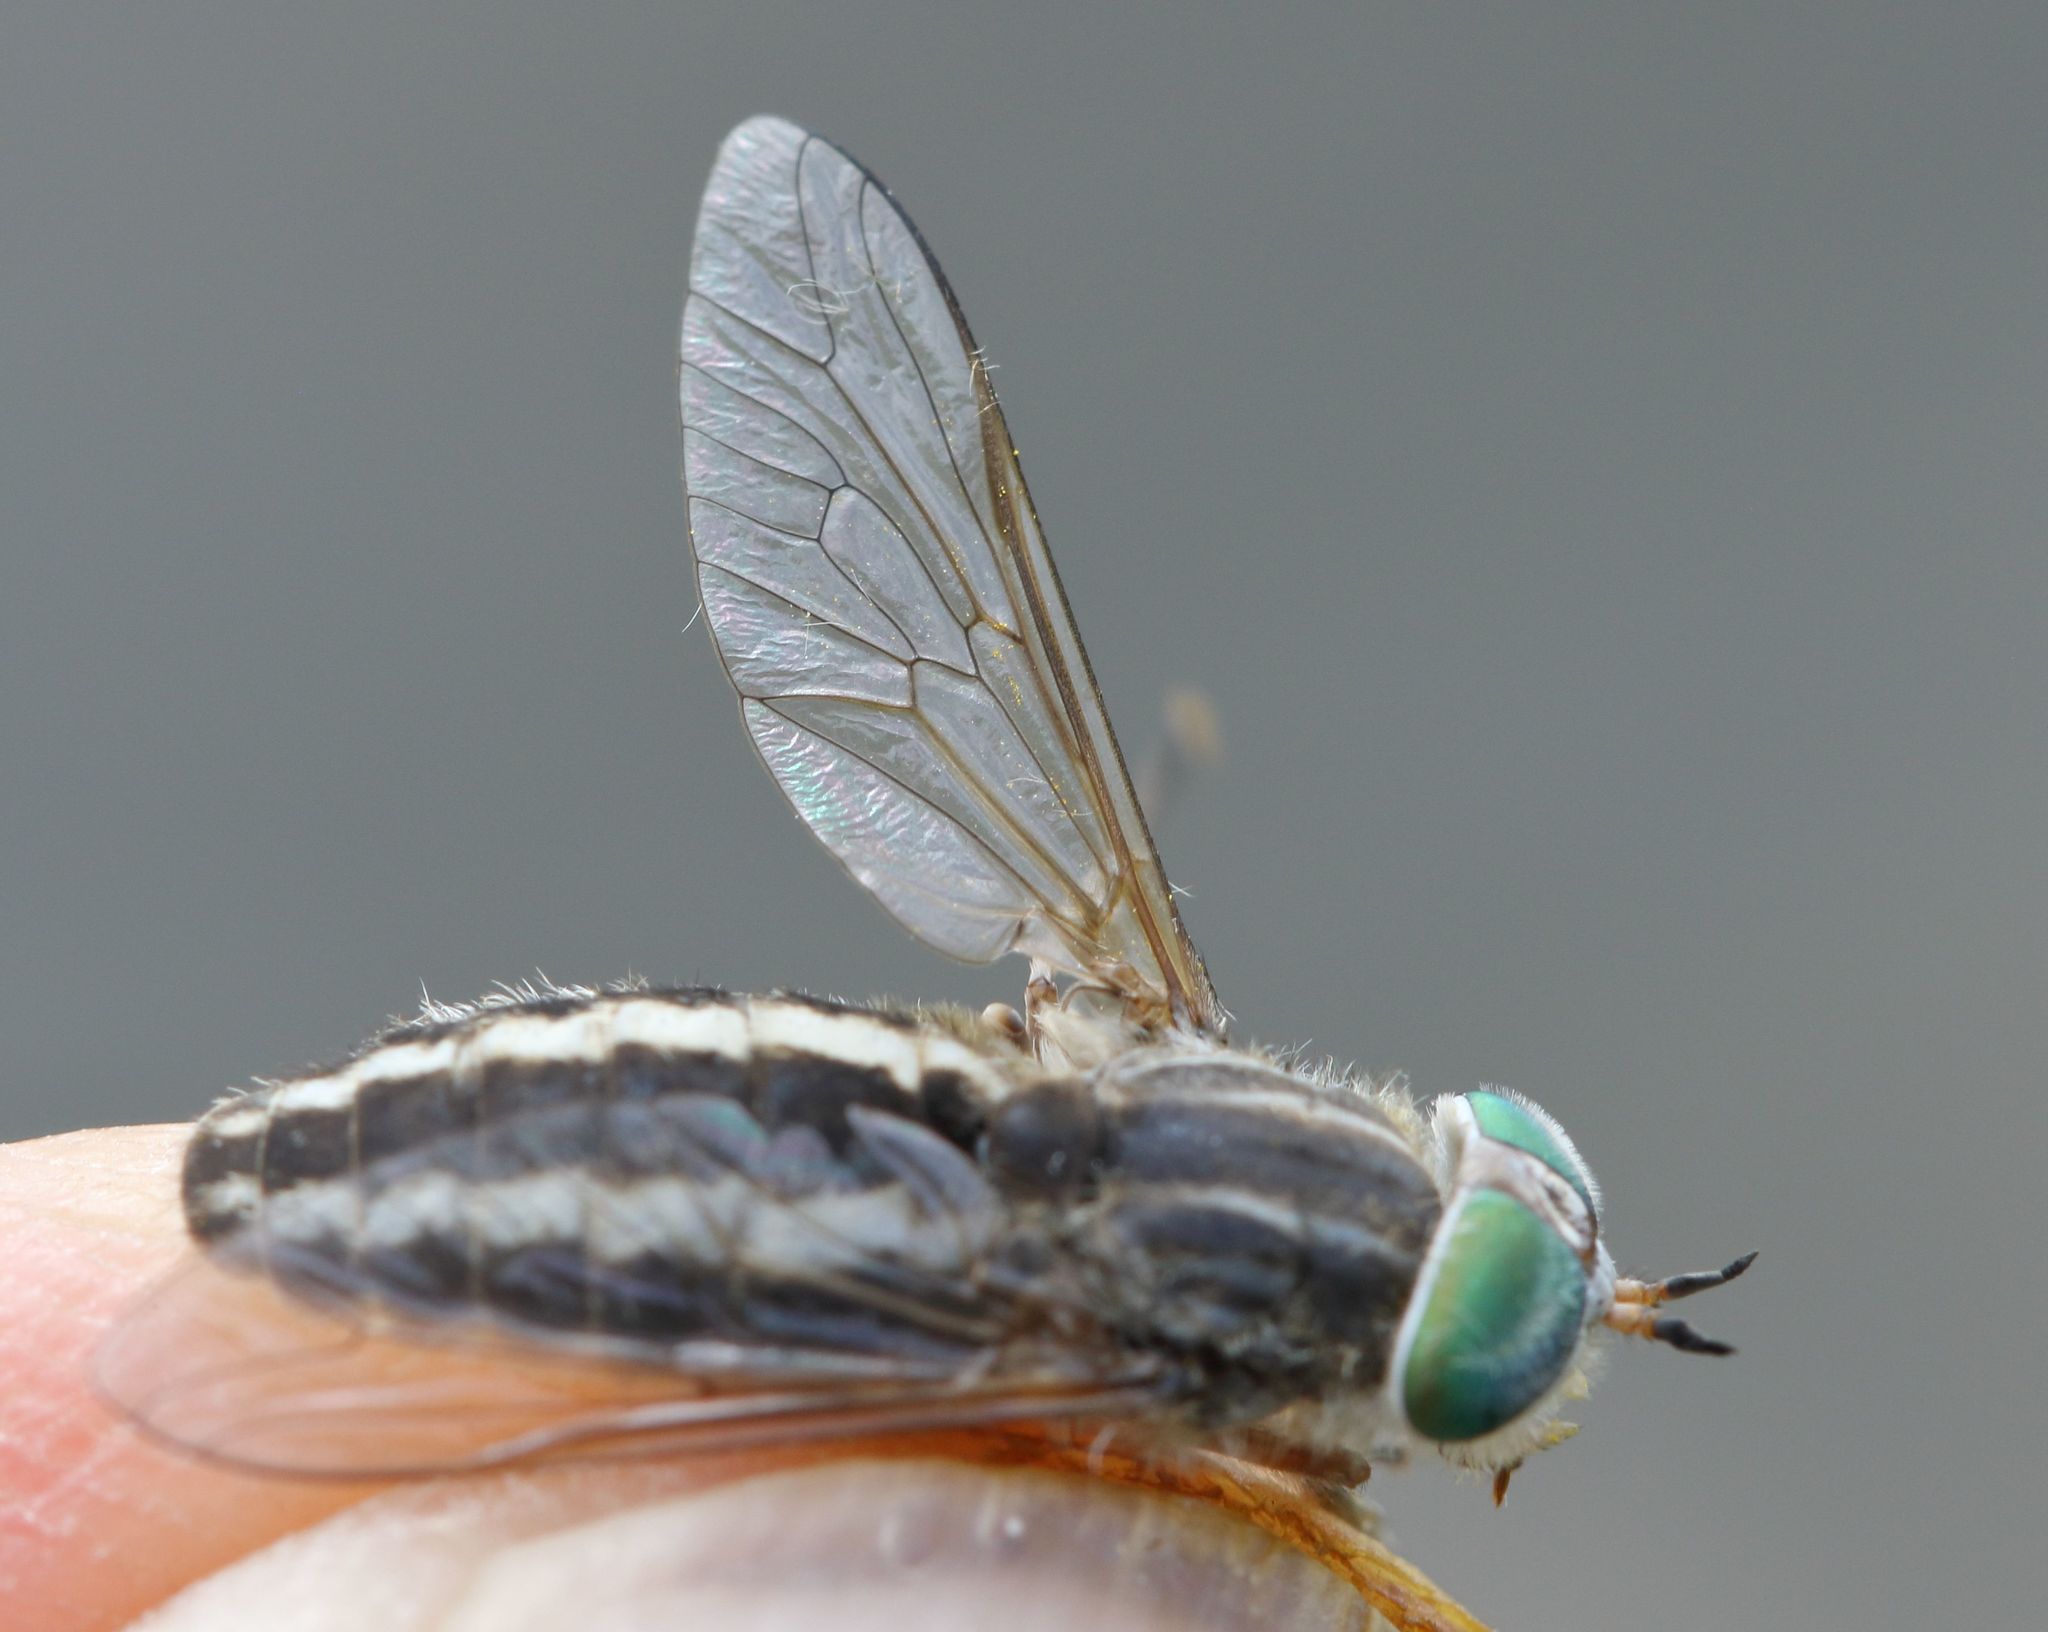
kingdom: Animalia
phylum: Arthropoda
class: Insecta
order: Diptera
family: Tabanidae
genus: Tabanus
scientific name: Tabanus taeniatus
